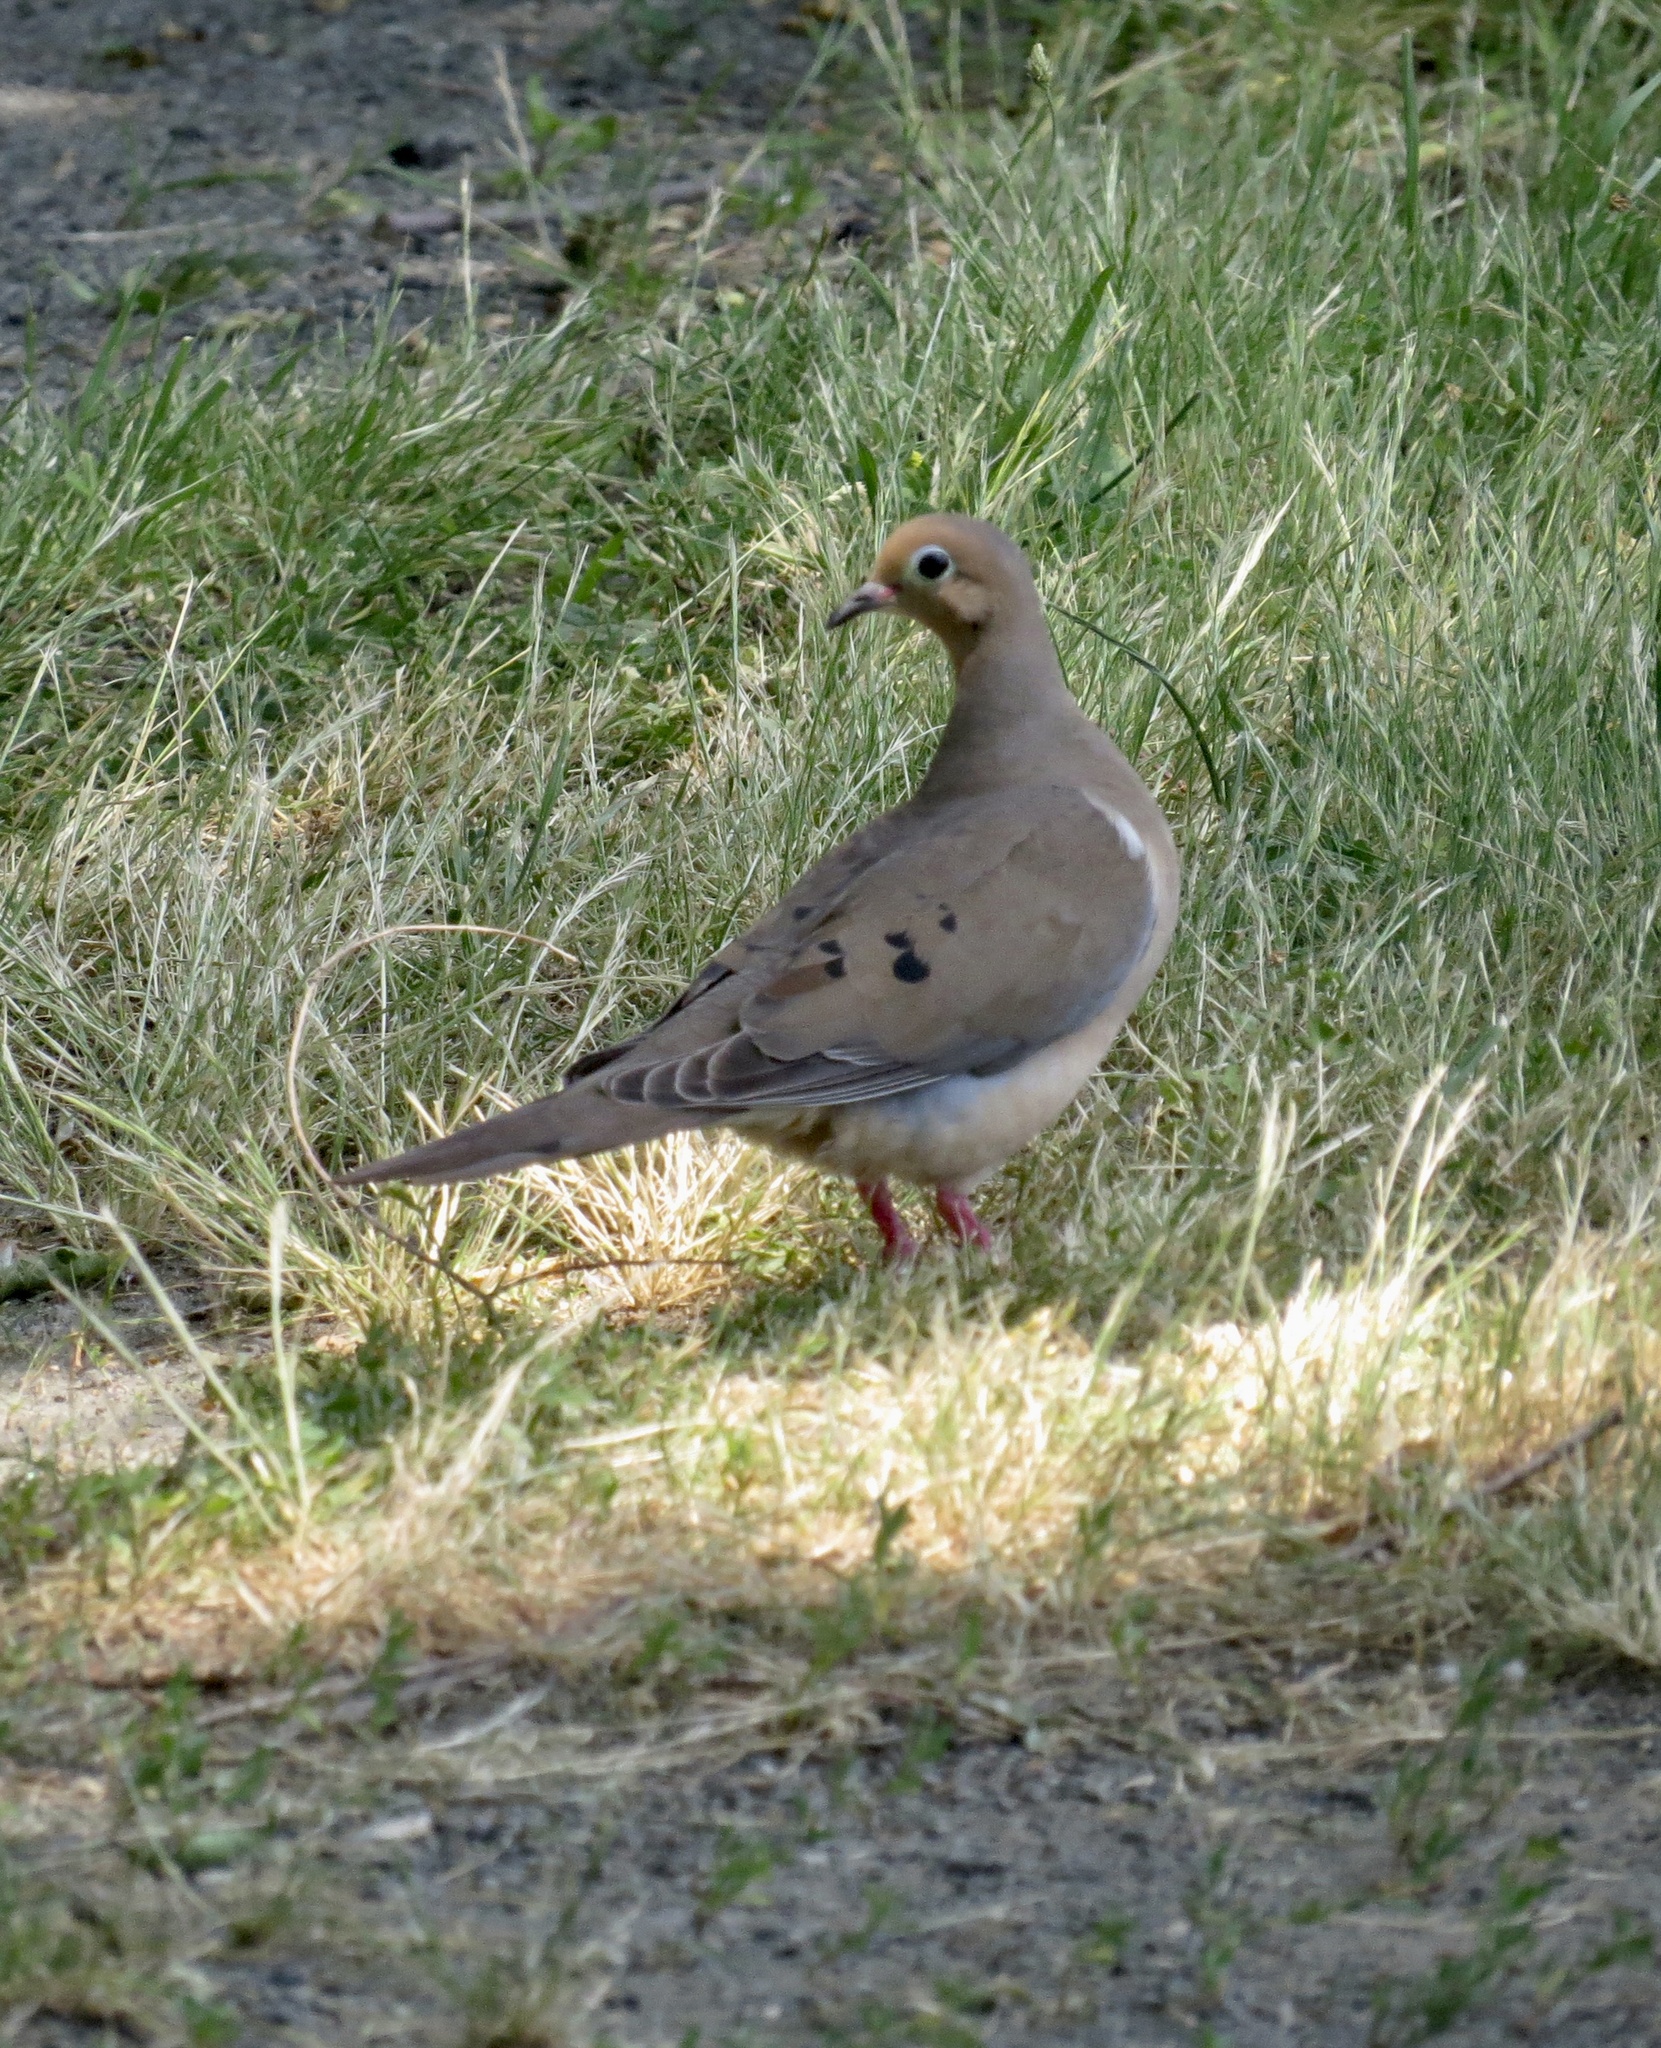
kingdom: Animalia
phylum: Chordata
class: Aves
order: Columbiformes
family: Columbidae
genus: Zenaida
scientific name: Zenaida macroura
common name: Mourning dove
